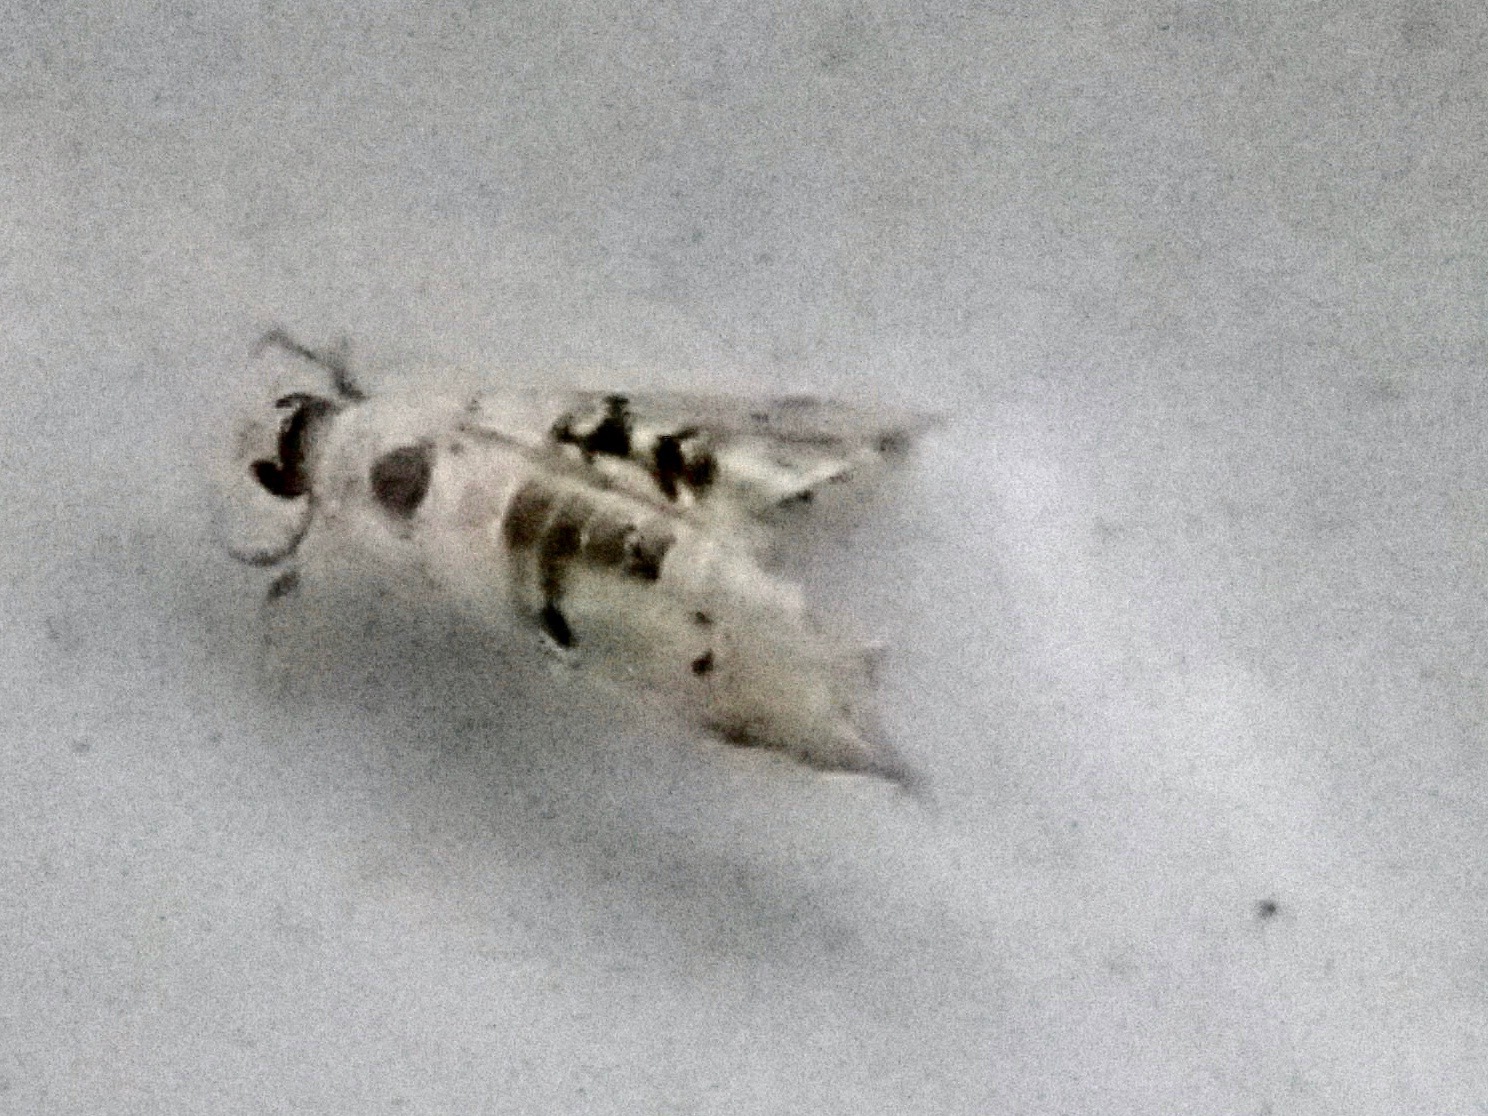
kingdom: Animalia
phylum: Arthropoda
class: Insecta
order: Lepidoptera
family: Crambidae
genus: Trichophysetis
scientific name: Trichophysetis
